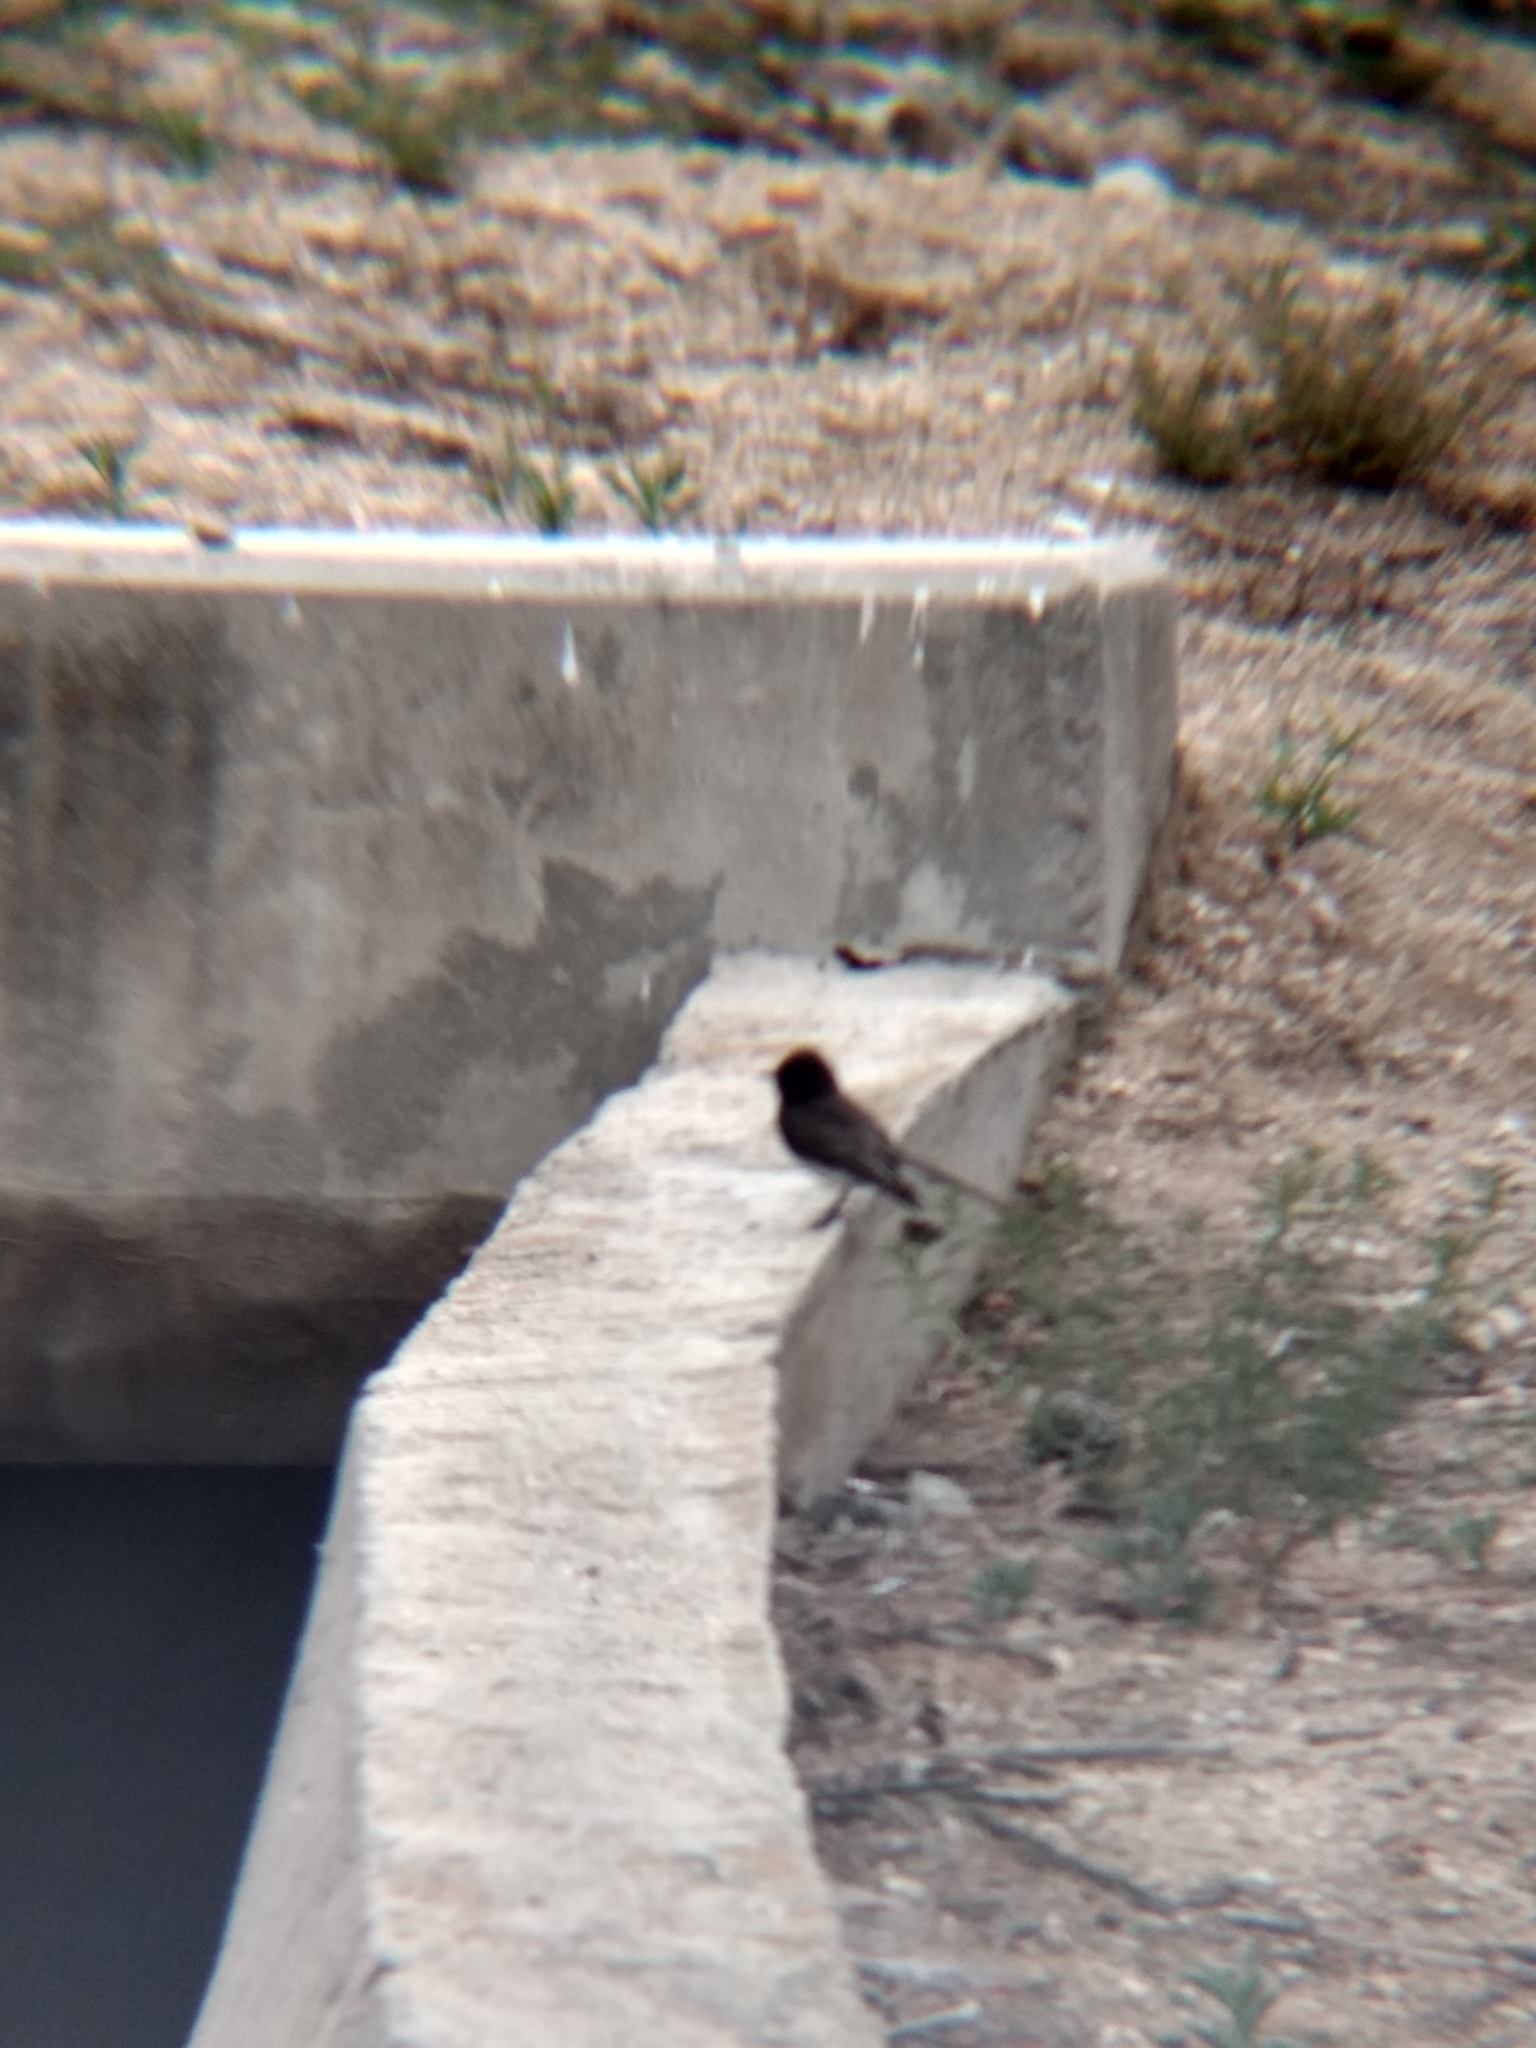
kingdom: Animalia
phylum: Chordata
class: Aves
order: Passeriformes
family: Tyrannidae
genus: Sayornis
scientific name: Sayornis nigricans
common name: Black phoebe
